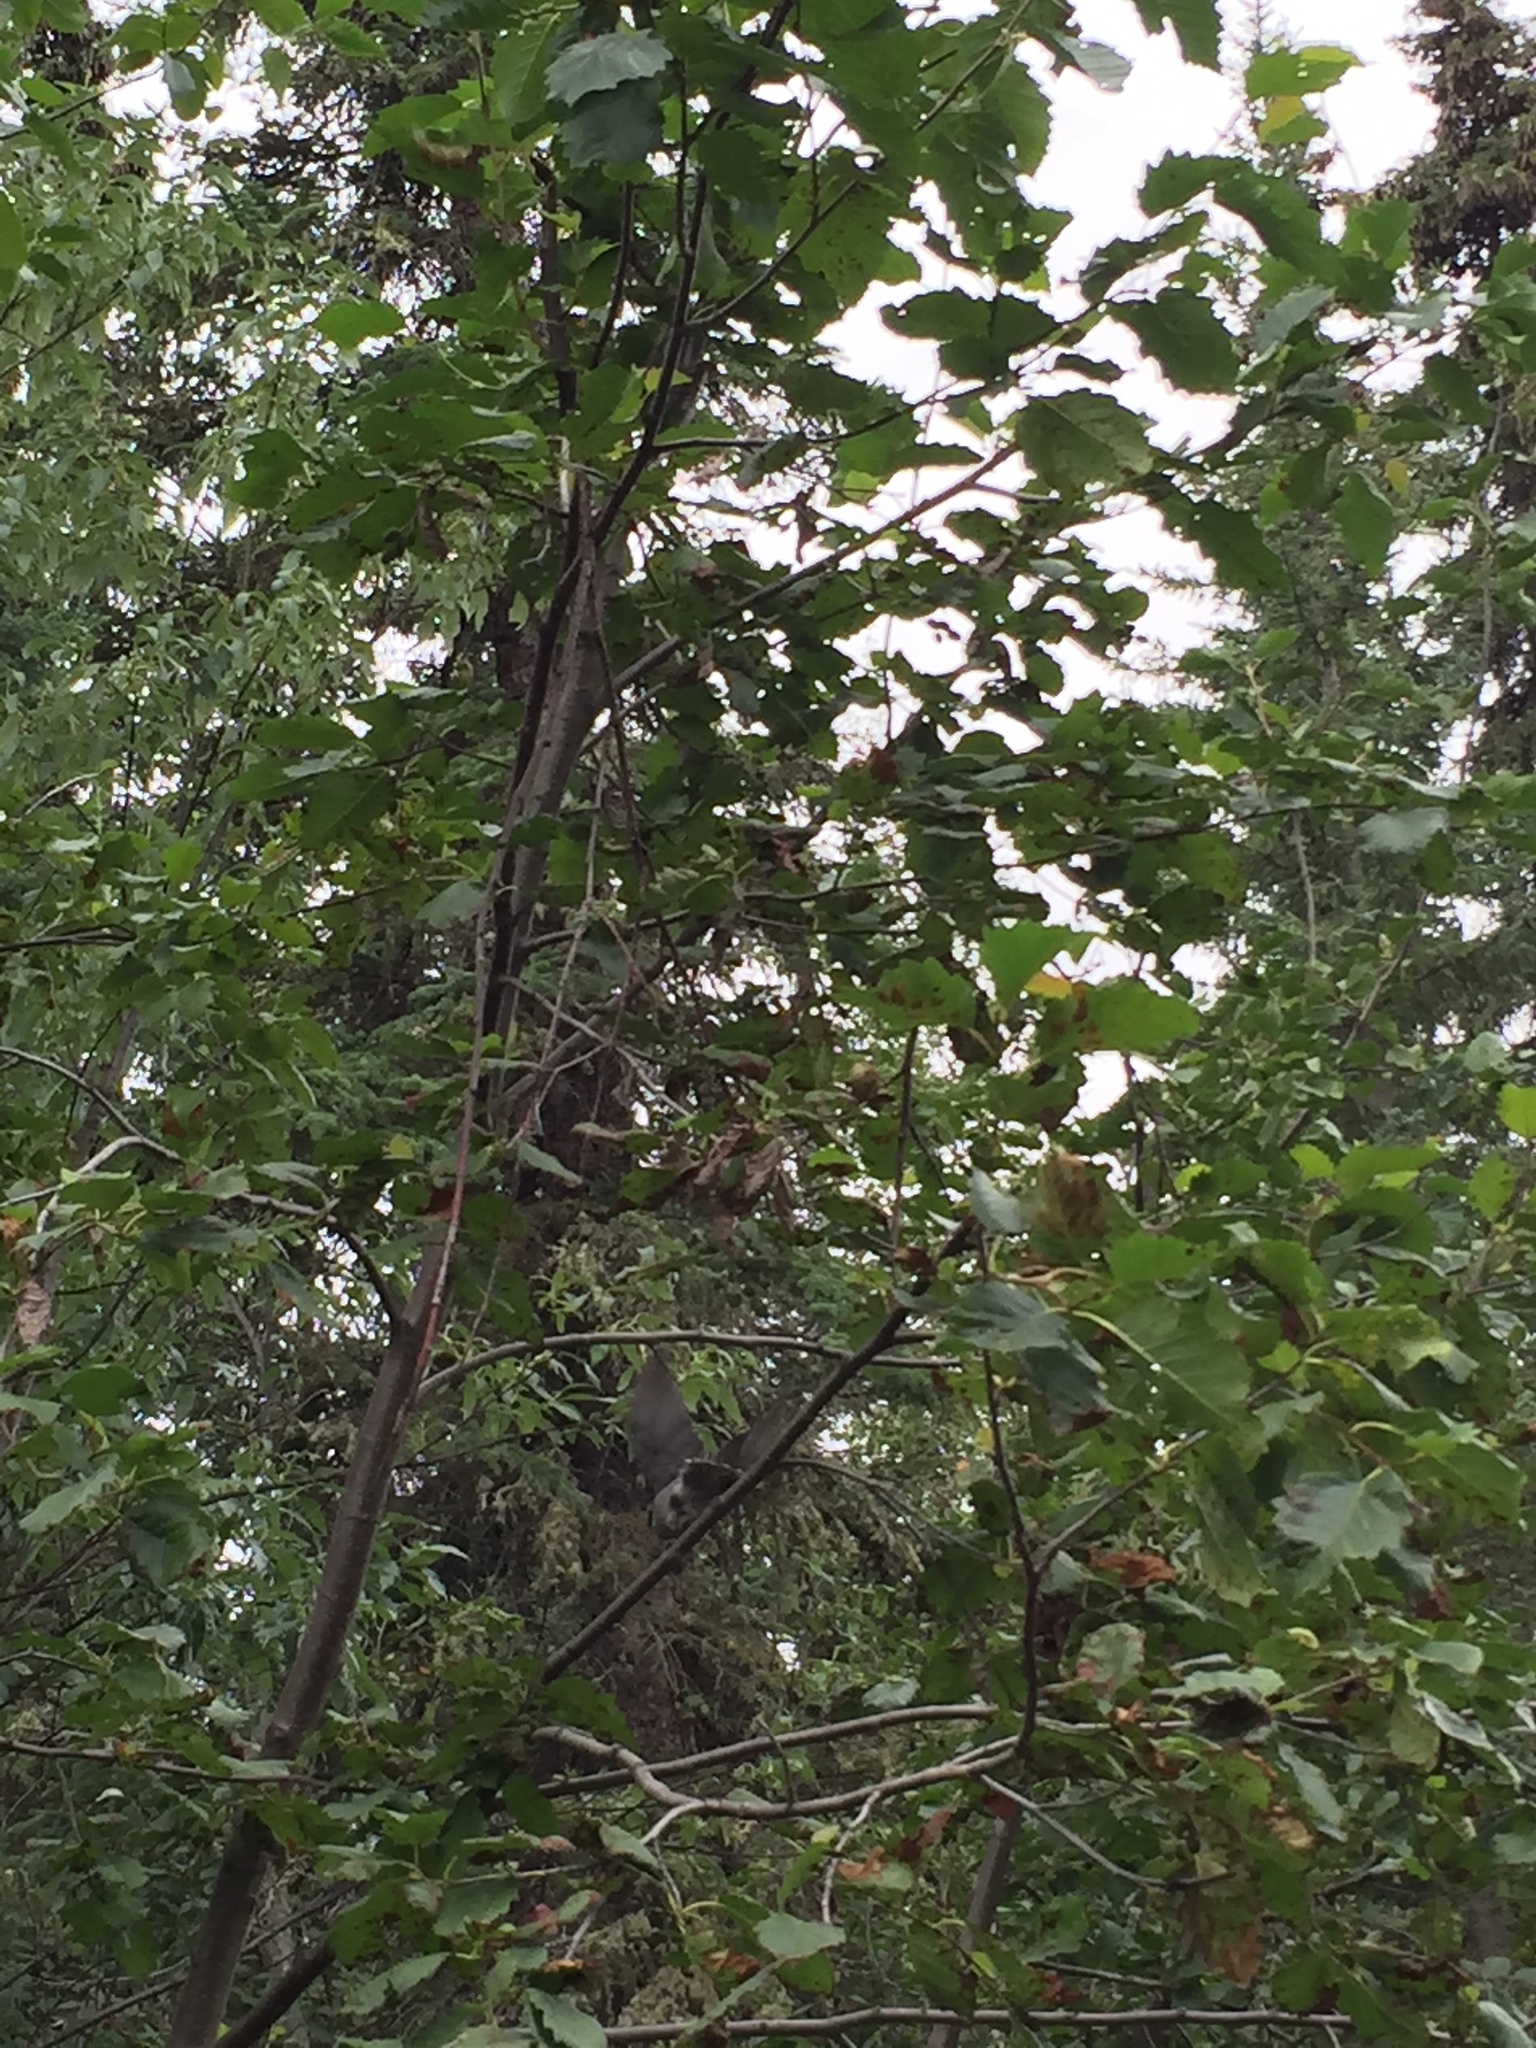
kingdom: Animalia
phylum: Chordata
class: Aves
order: Passeriformes
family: Corvidae
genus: Perisoreus
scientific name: Perisoreus canadensis
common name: Gray jay
